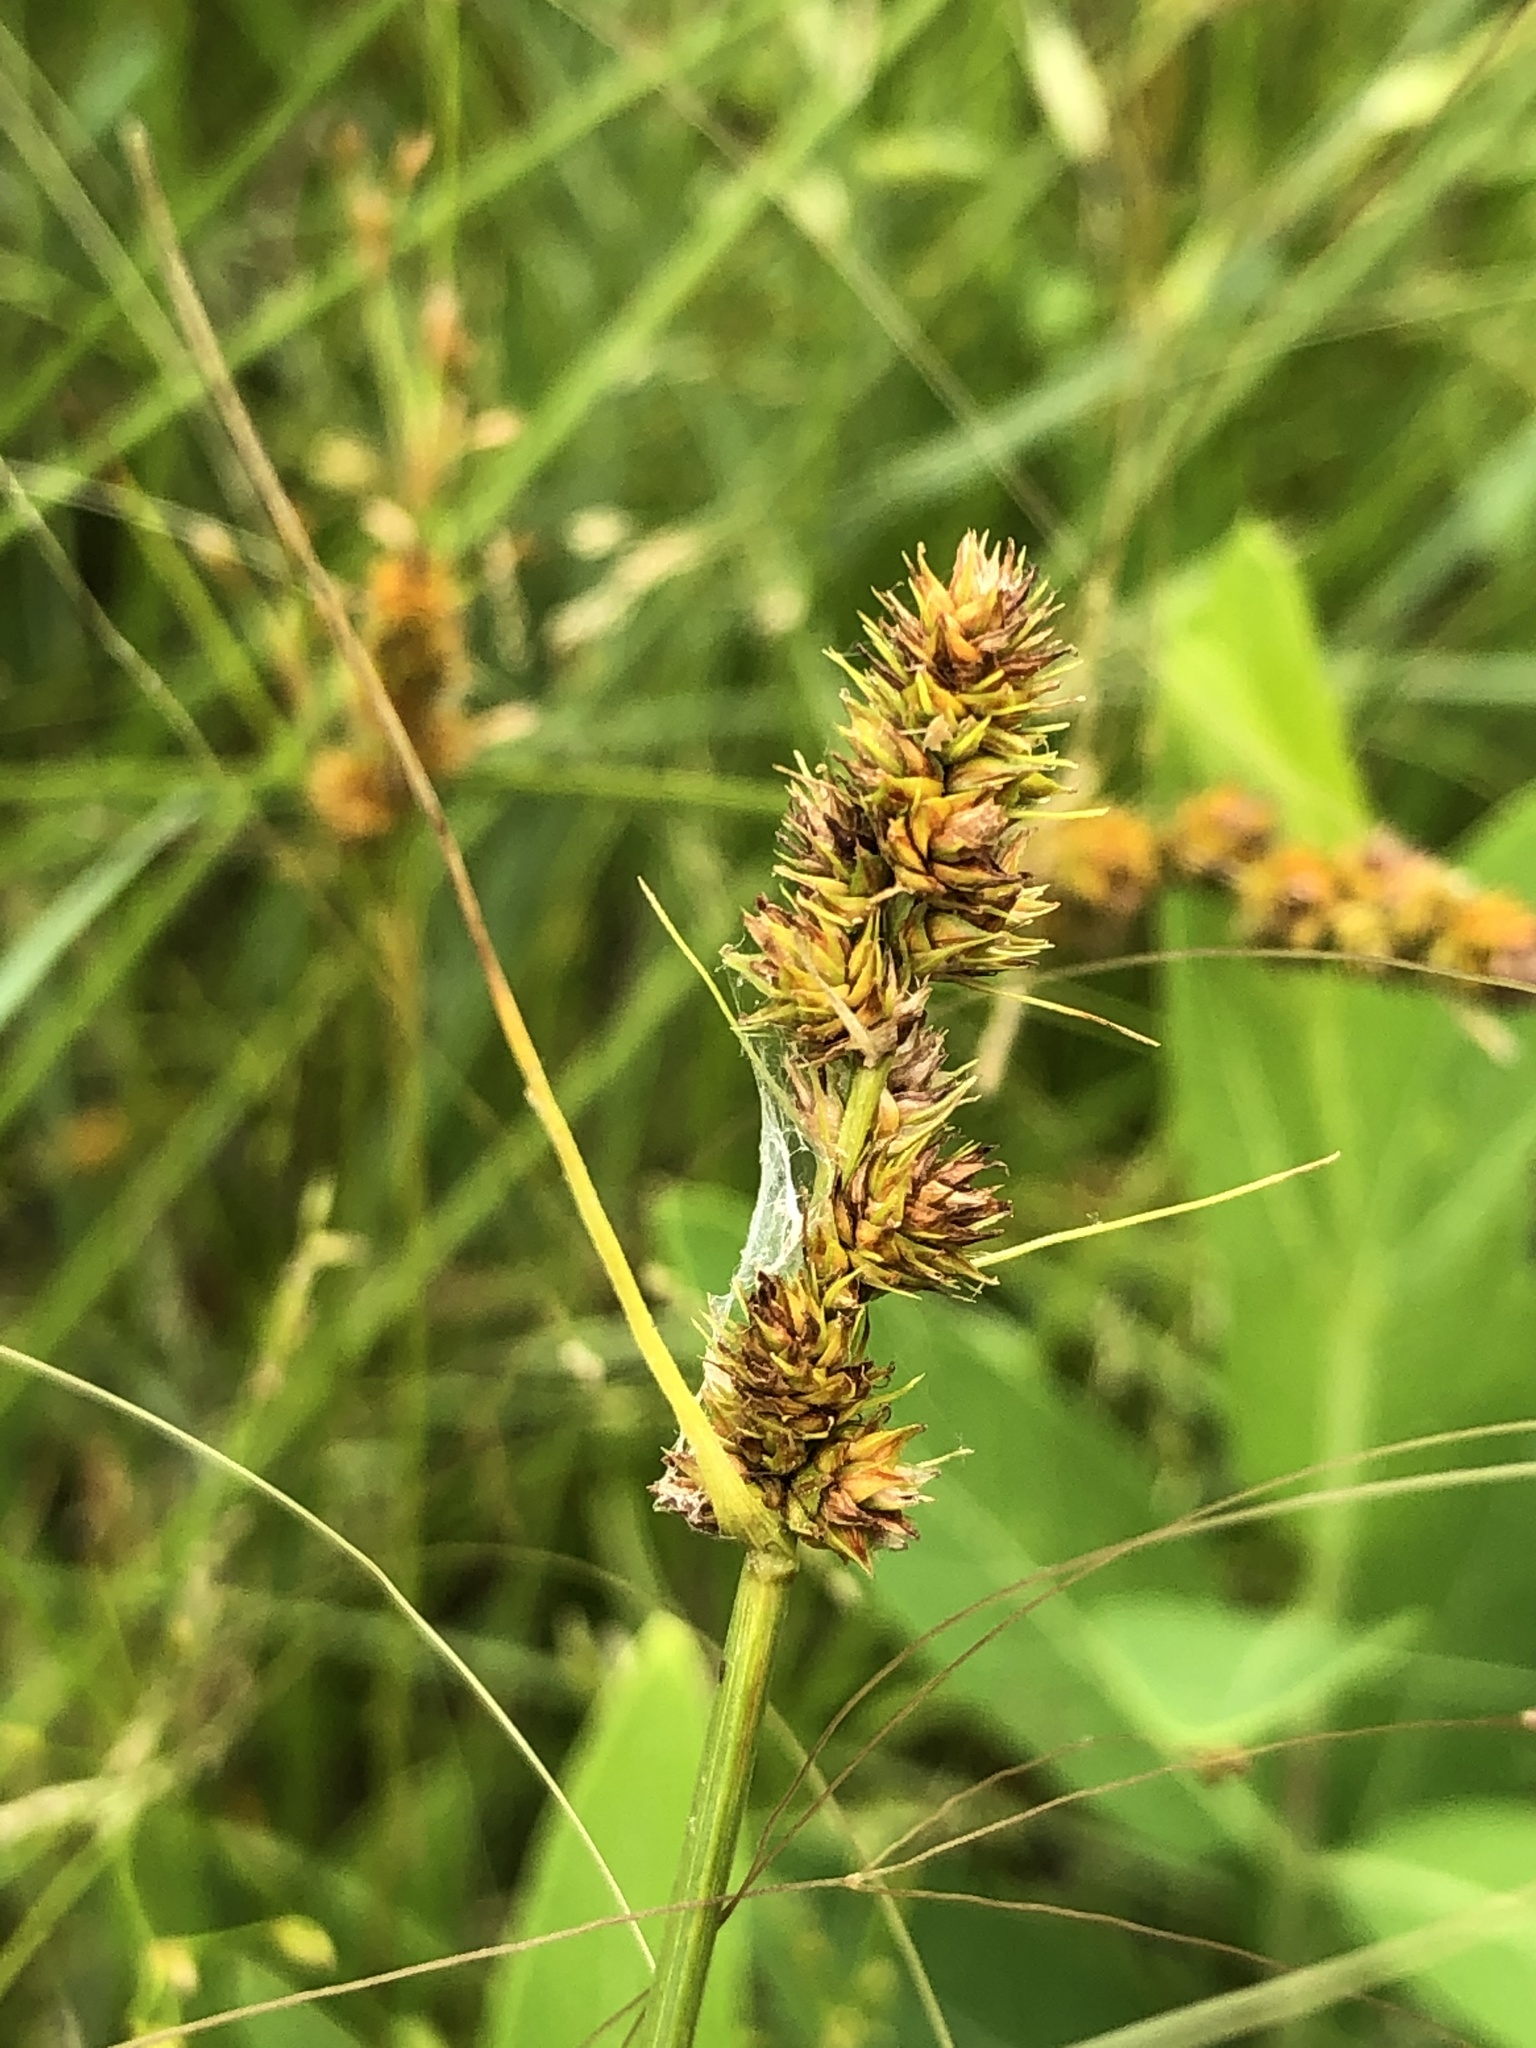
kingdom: Plantae
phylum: Tracheophyta
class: Liliopsida
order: Poales
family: Cyperaceae
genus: Carex
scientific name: Carex muehlenbergii
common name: Muhlenberg's bracted sedge
